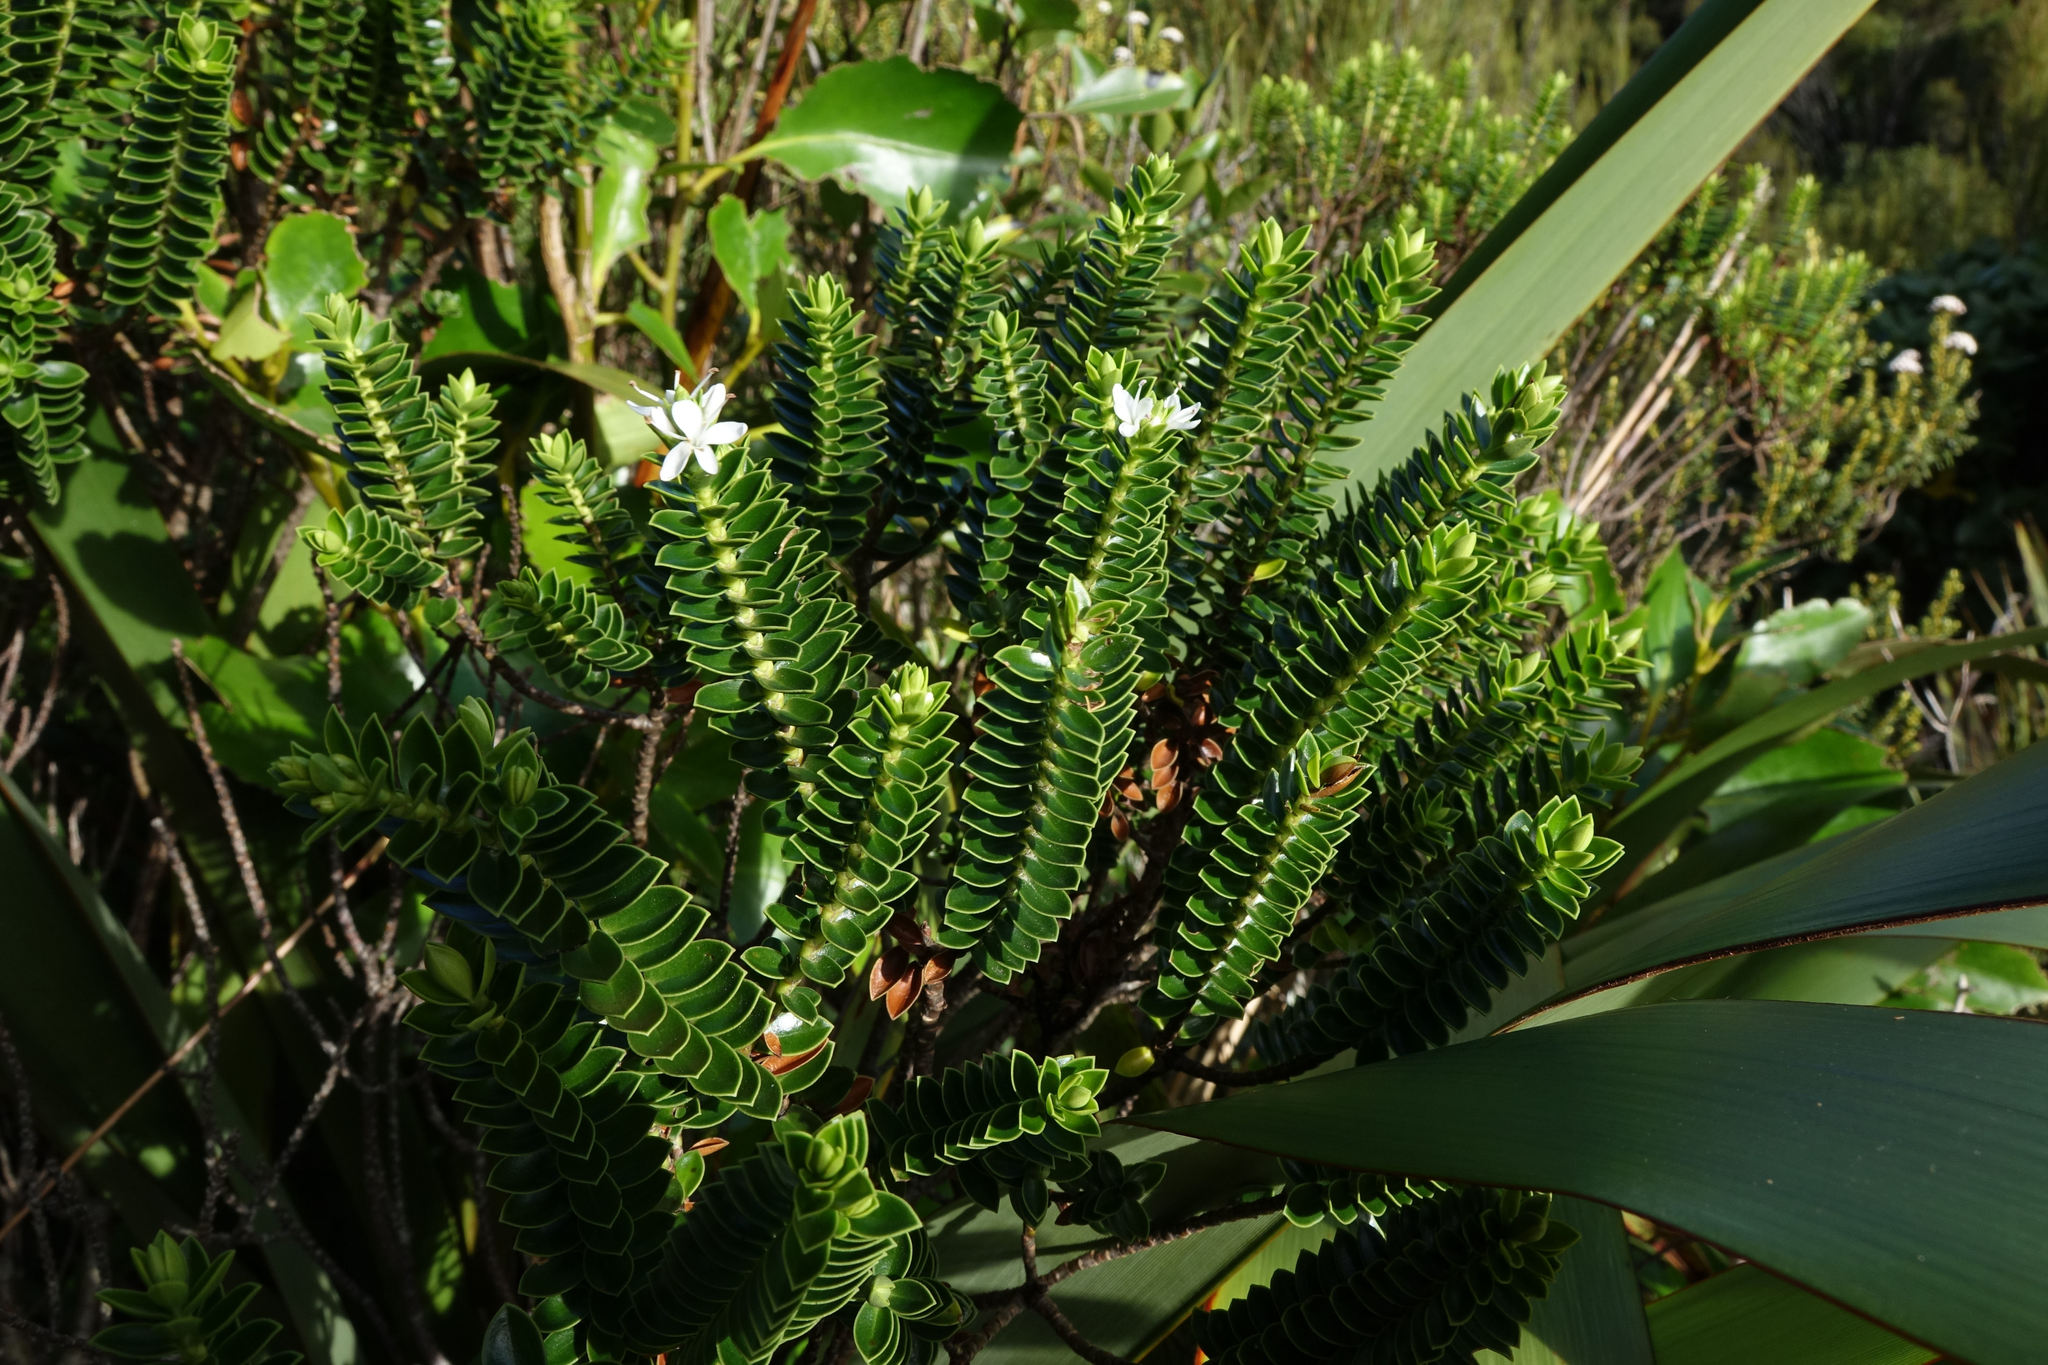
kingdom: Plantae
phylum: Tracheophyta
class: Magnoliopsida
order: Lamiales
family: Plantaginaceae
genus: Veronica
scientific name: Veronica odora
